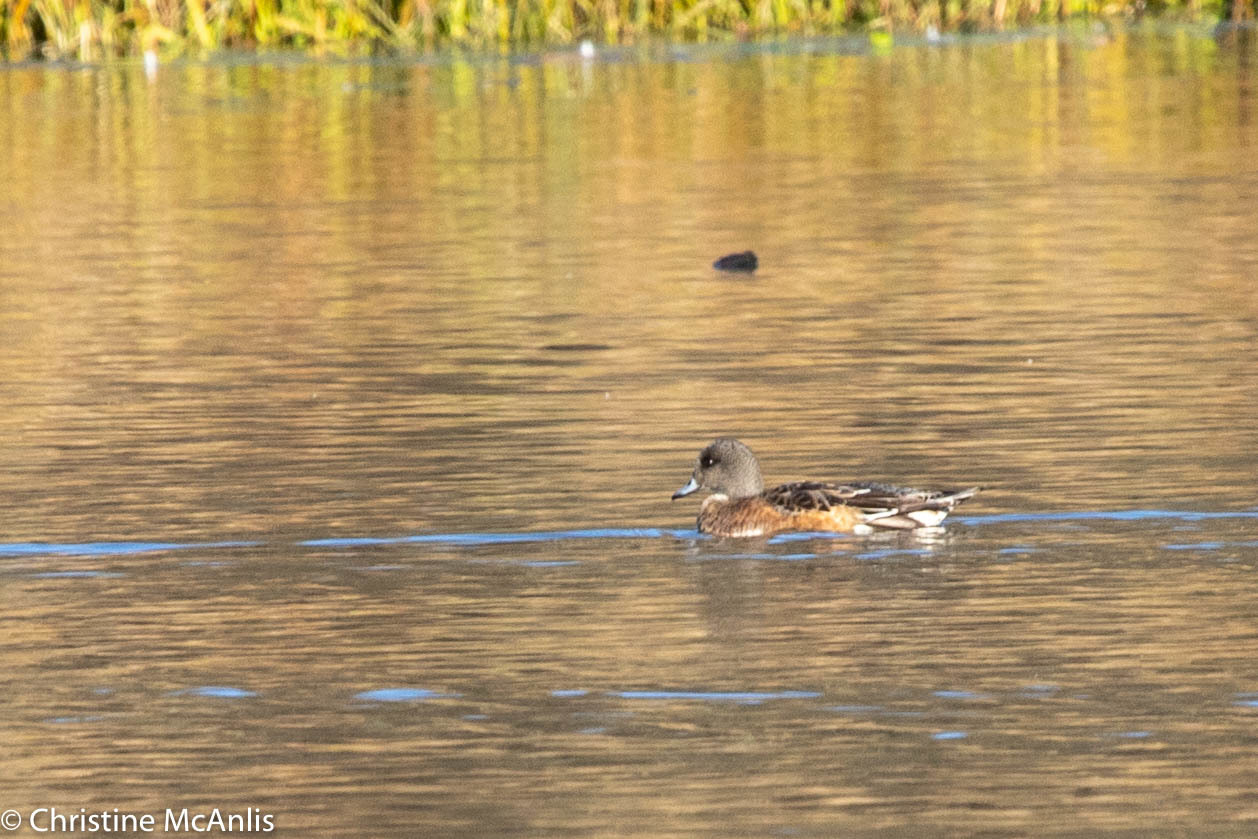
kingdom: Animalia
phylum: Chordata
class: Aves
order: Anseriformes
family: Anatidae
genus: Mareca
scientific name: Mareca americana
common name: American wigeon
